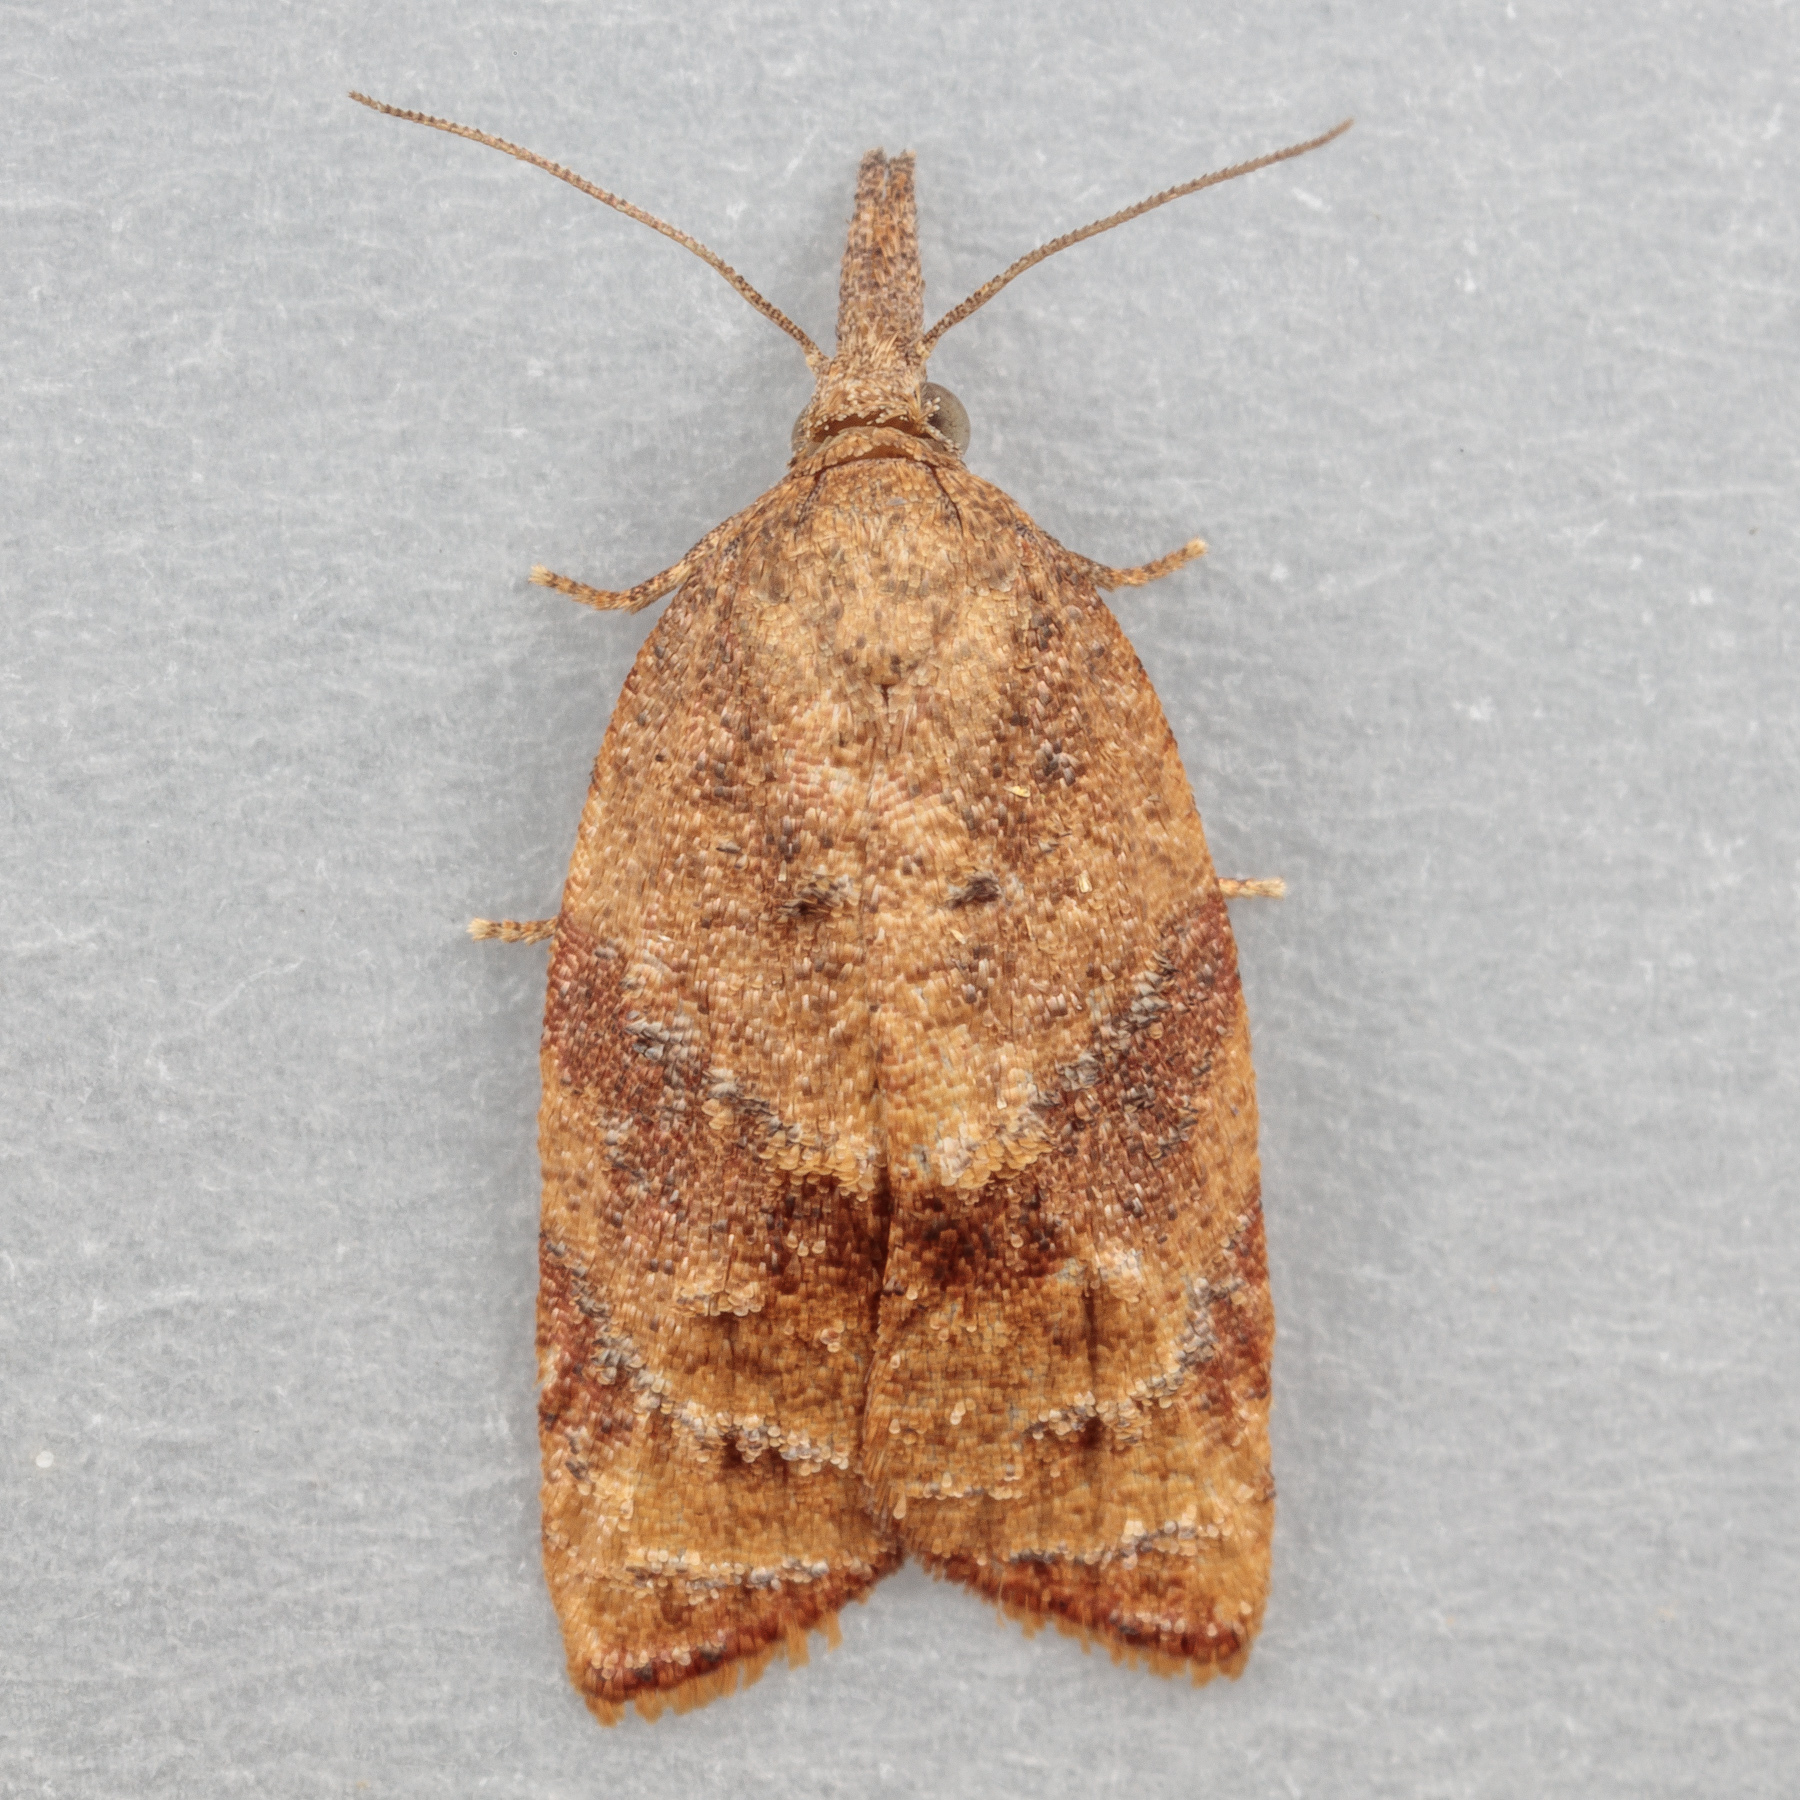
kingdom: Animalia
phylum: Arthropoda
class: Insecta
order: Lepidoptera
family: Tortricidae
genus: Platynota
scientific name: Platynota stultana
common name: Omnivorous leafroller
